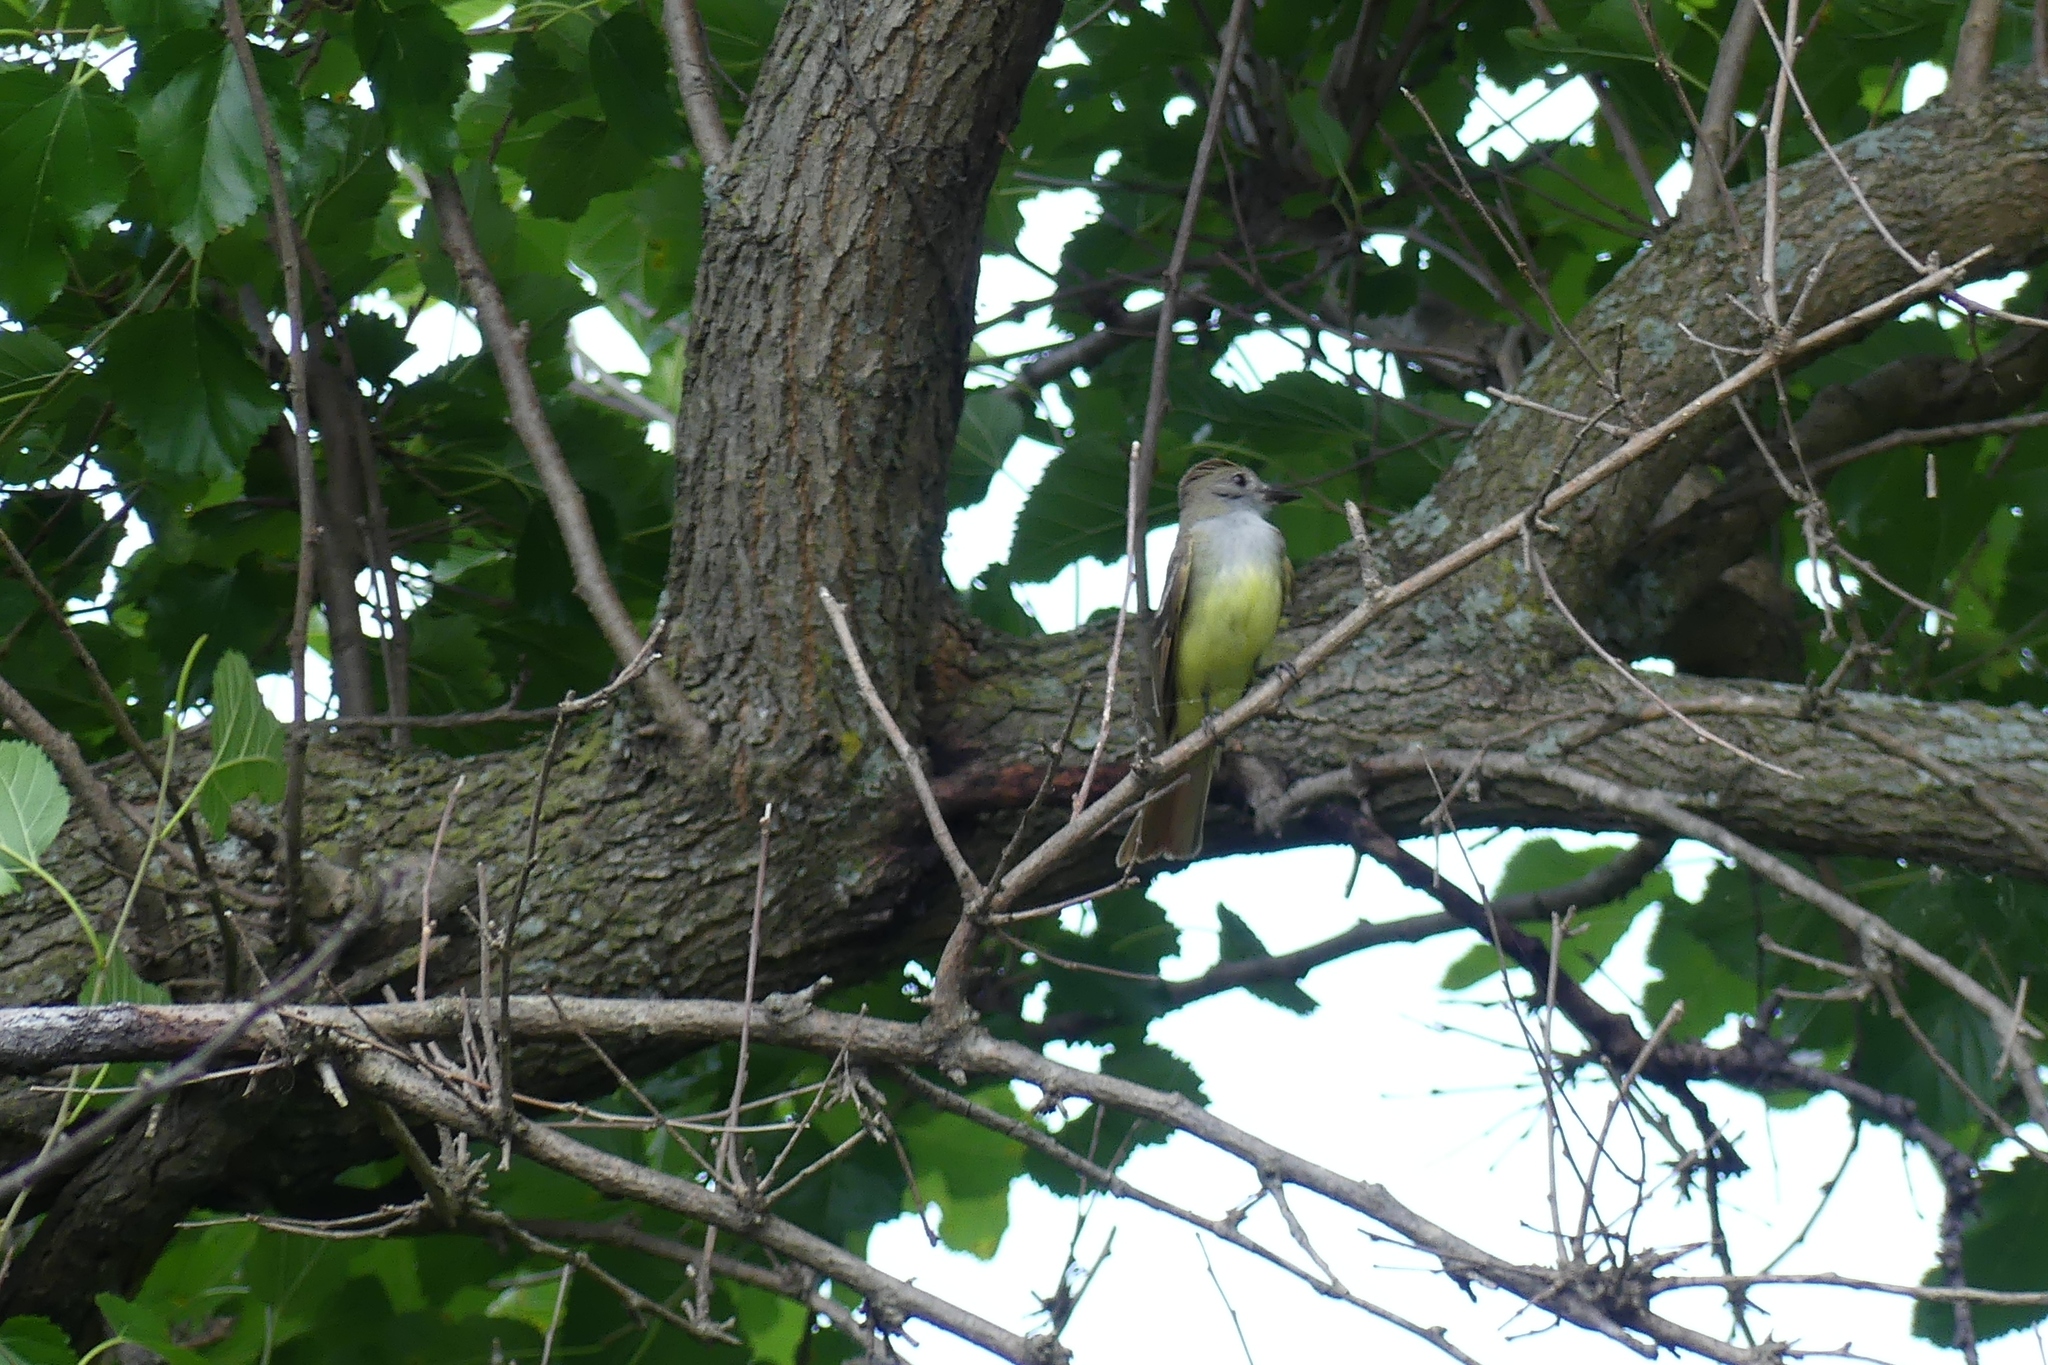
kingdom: Animalia
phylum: Chordata
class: Aves
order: Passeriformes
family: Tyrannidae
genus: Myiarchus
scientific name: Myiarchus crinitus
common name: Great crested flycatcher
